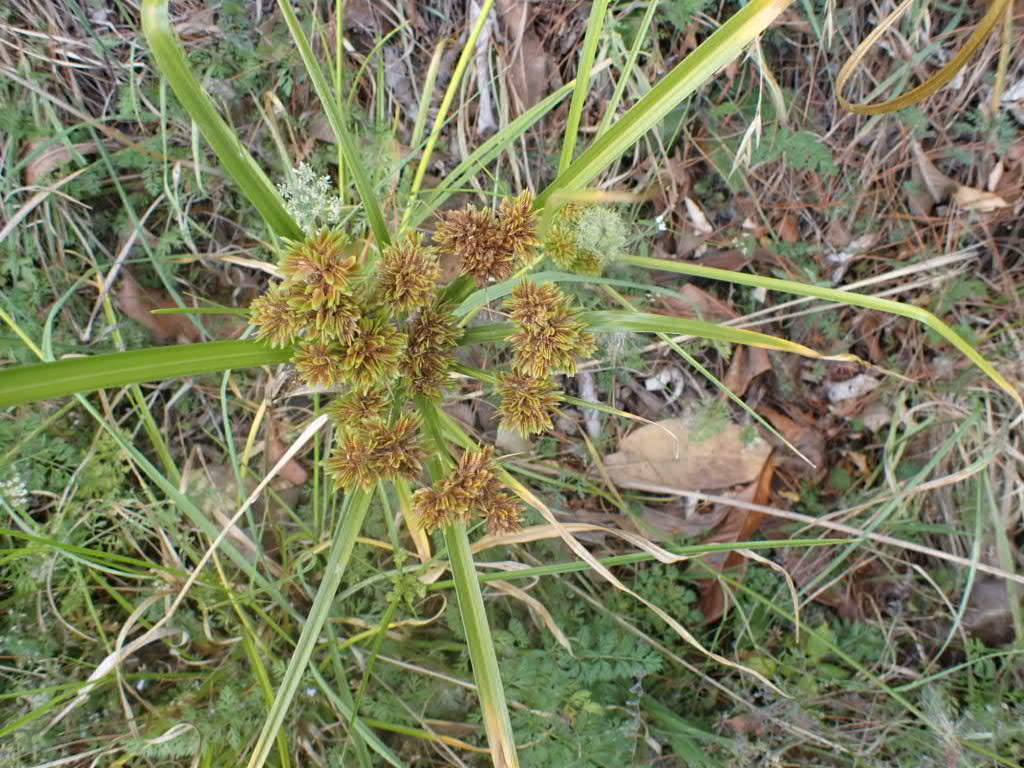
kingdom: Plantae
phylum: Tracheophyta
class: Liliopsida
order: Poales
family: Cyperaceae
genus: Cyperus
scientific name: Cyperus eragrostis
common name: Tall flatsedge
